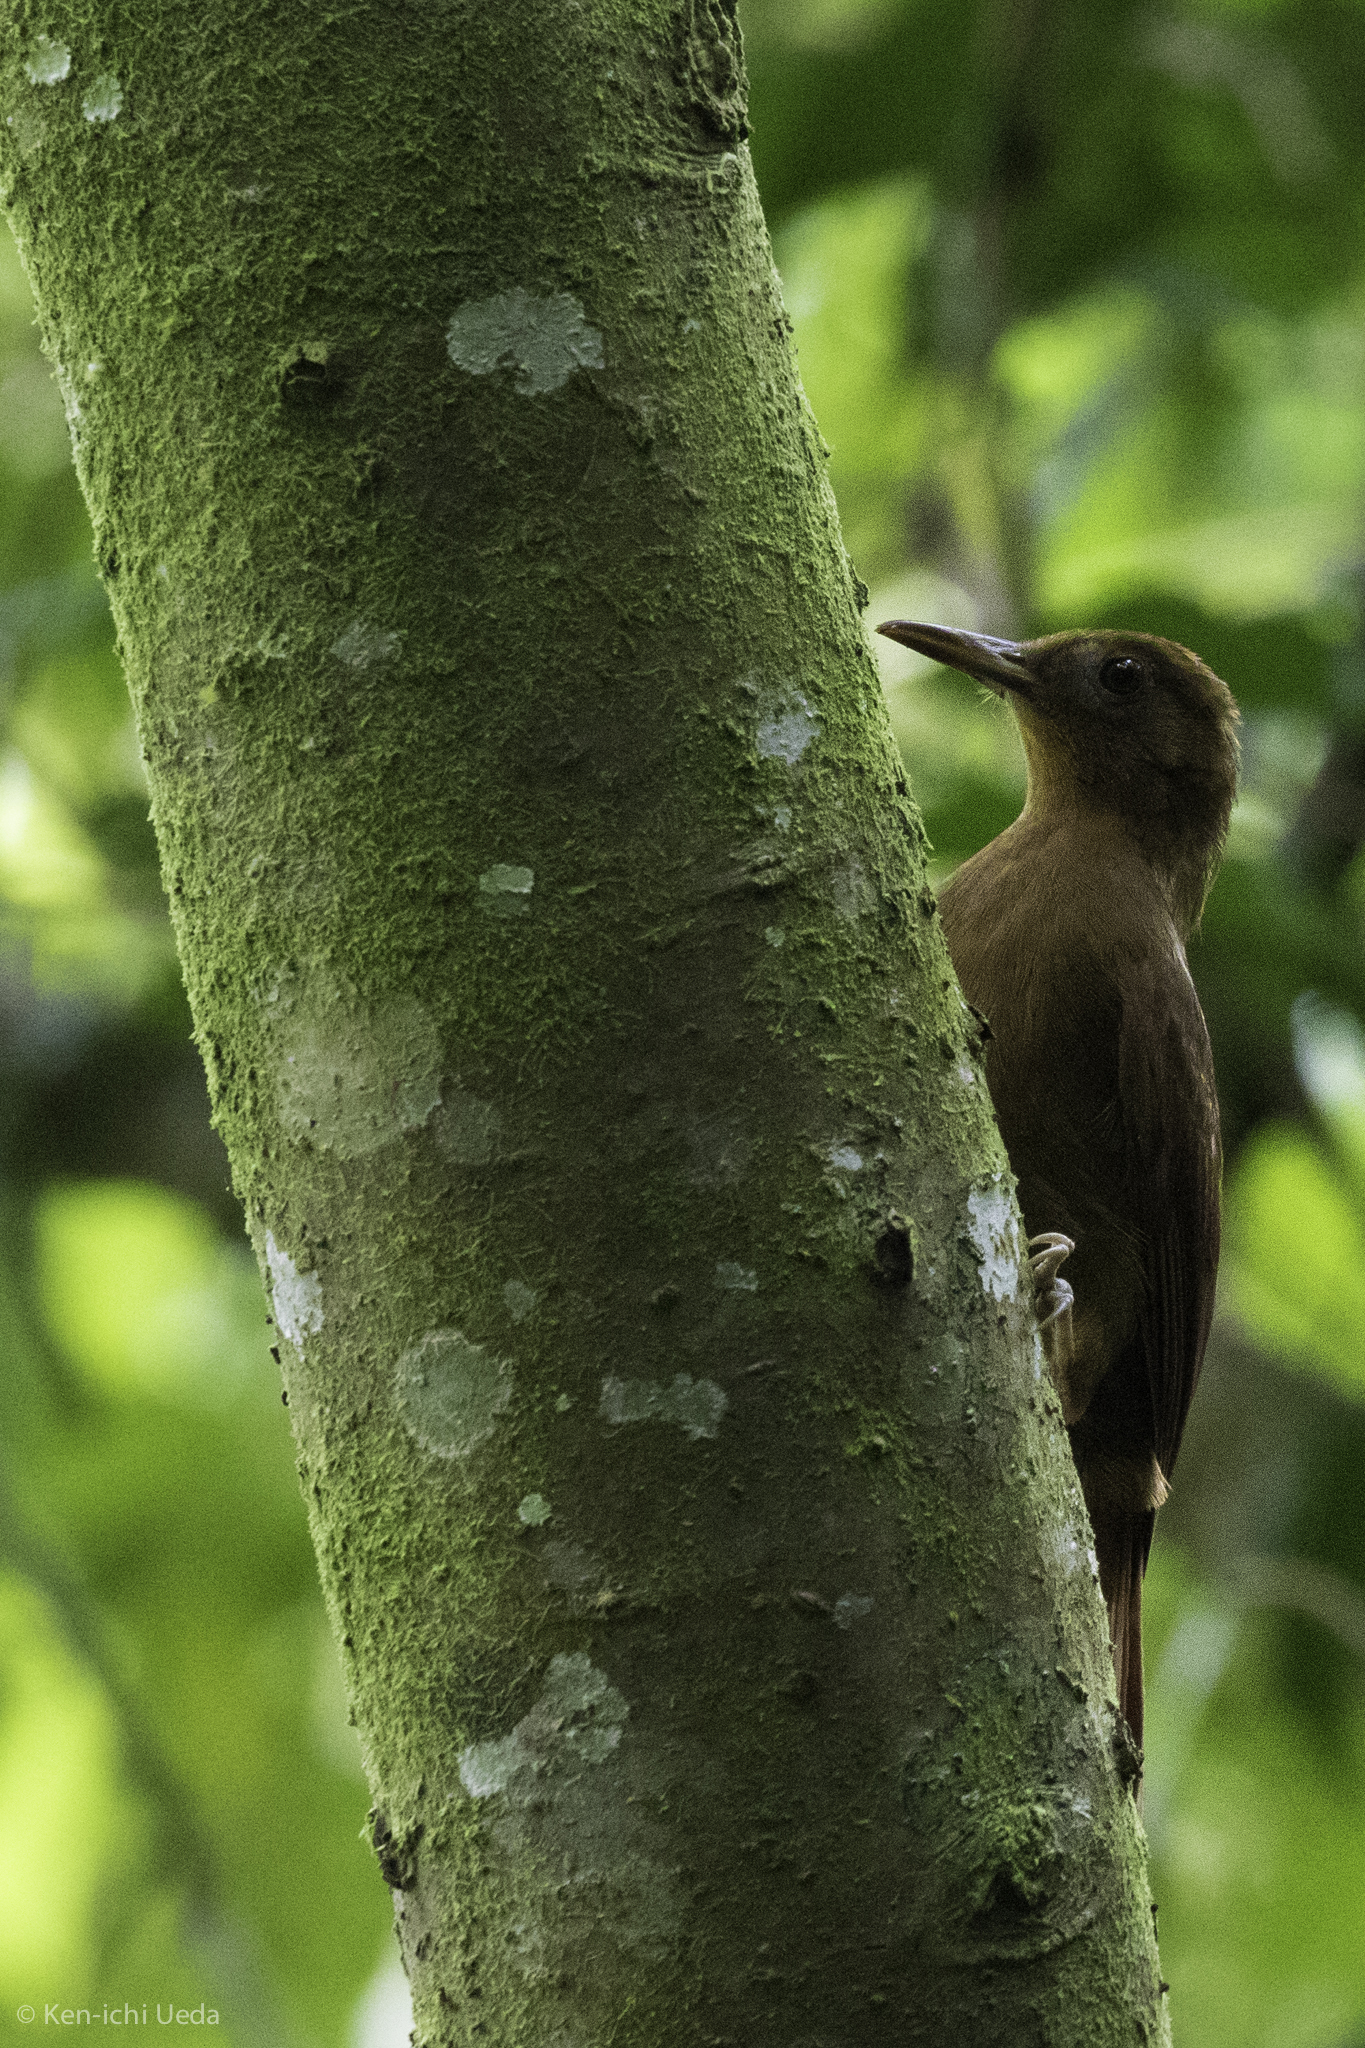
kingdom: Animalia
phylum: Chordata
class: Aves
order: Passeriformes
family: Furnariidae
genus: Dendrocincla
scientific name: Dendrocincla homochroa
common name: Ruddy woodcreeper
